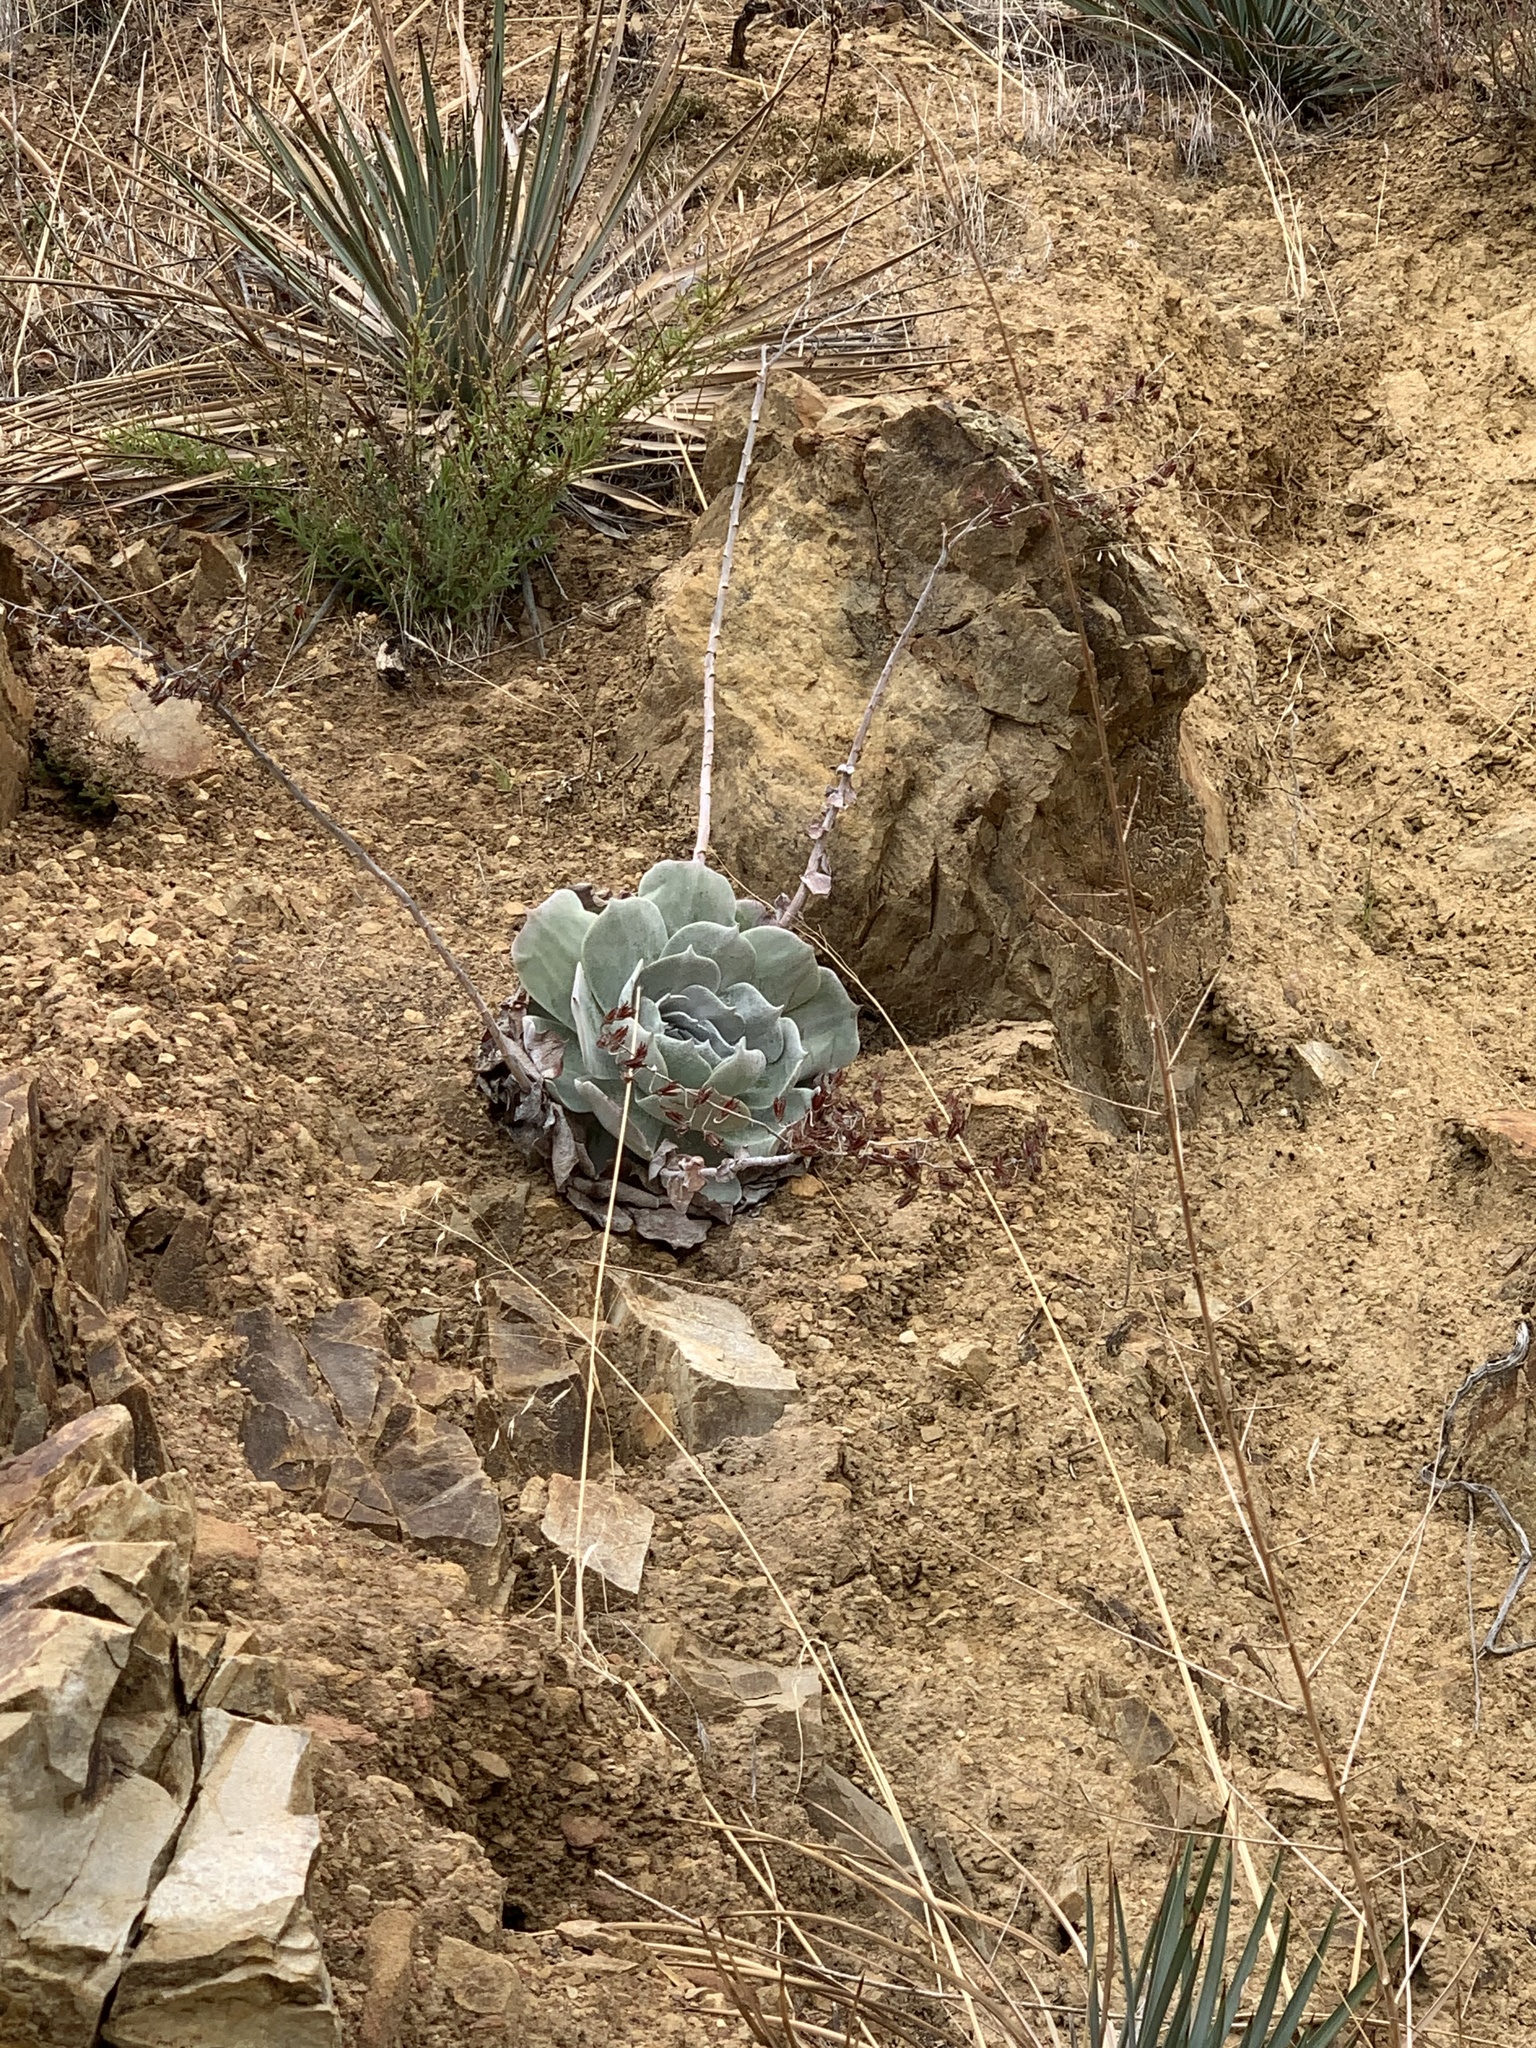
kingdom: Plantae
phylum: Tracheophyta
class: Magnoliopsida
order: Saxifragales
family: Crassulaceae
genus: Dudleya
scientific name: Dudleya pulverulenta
